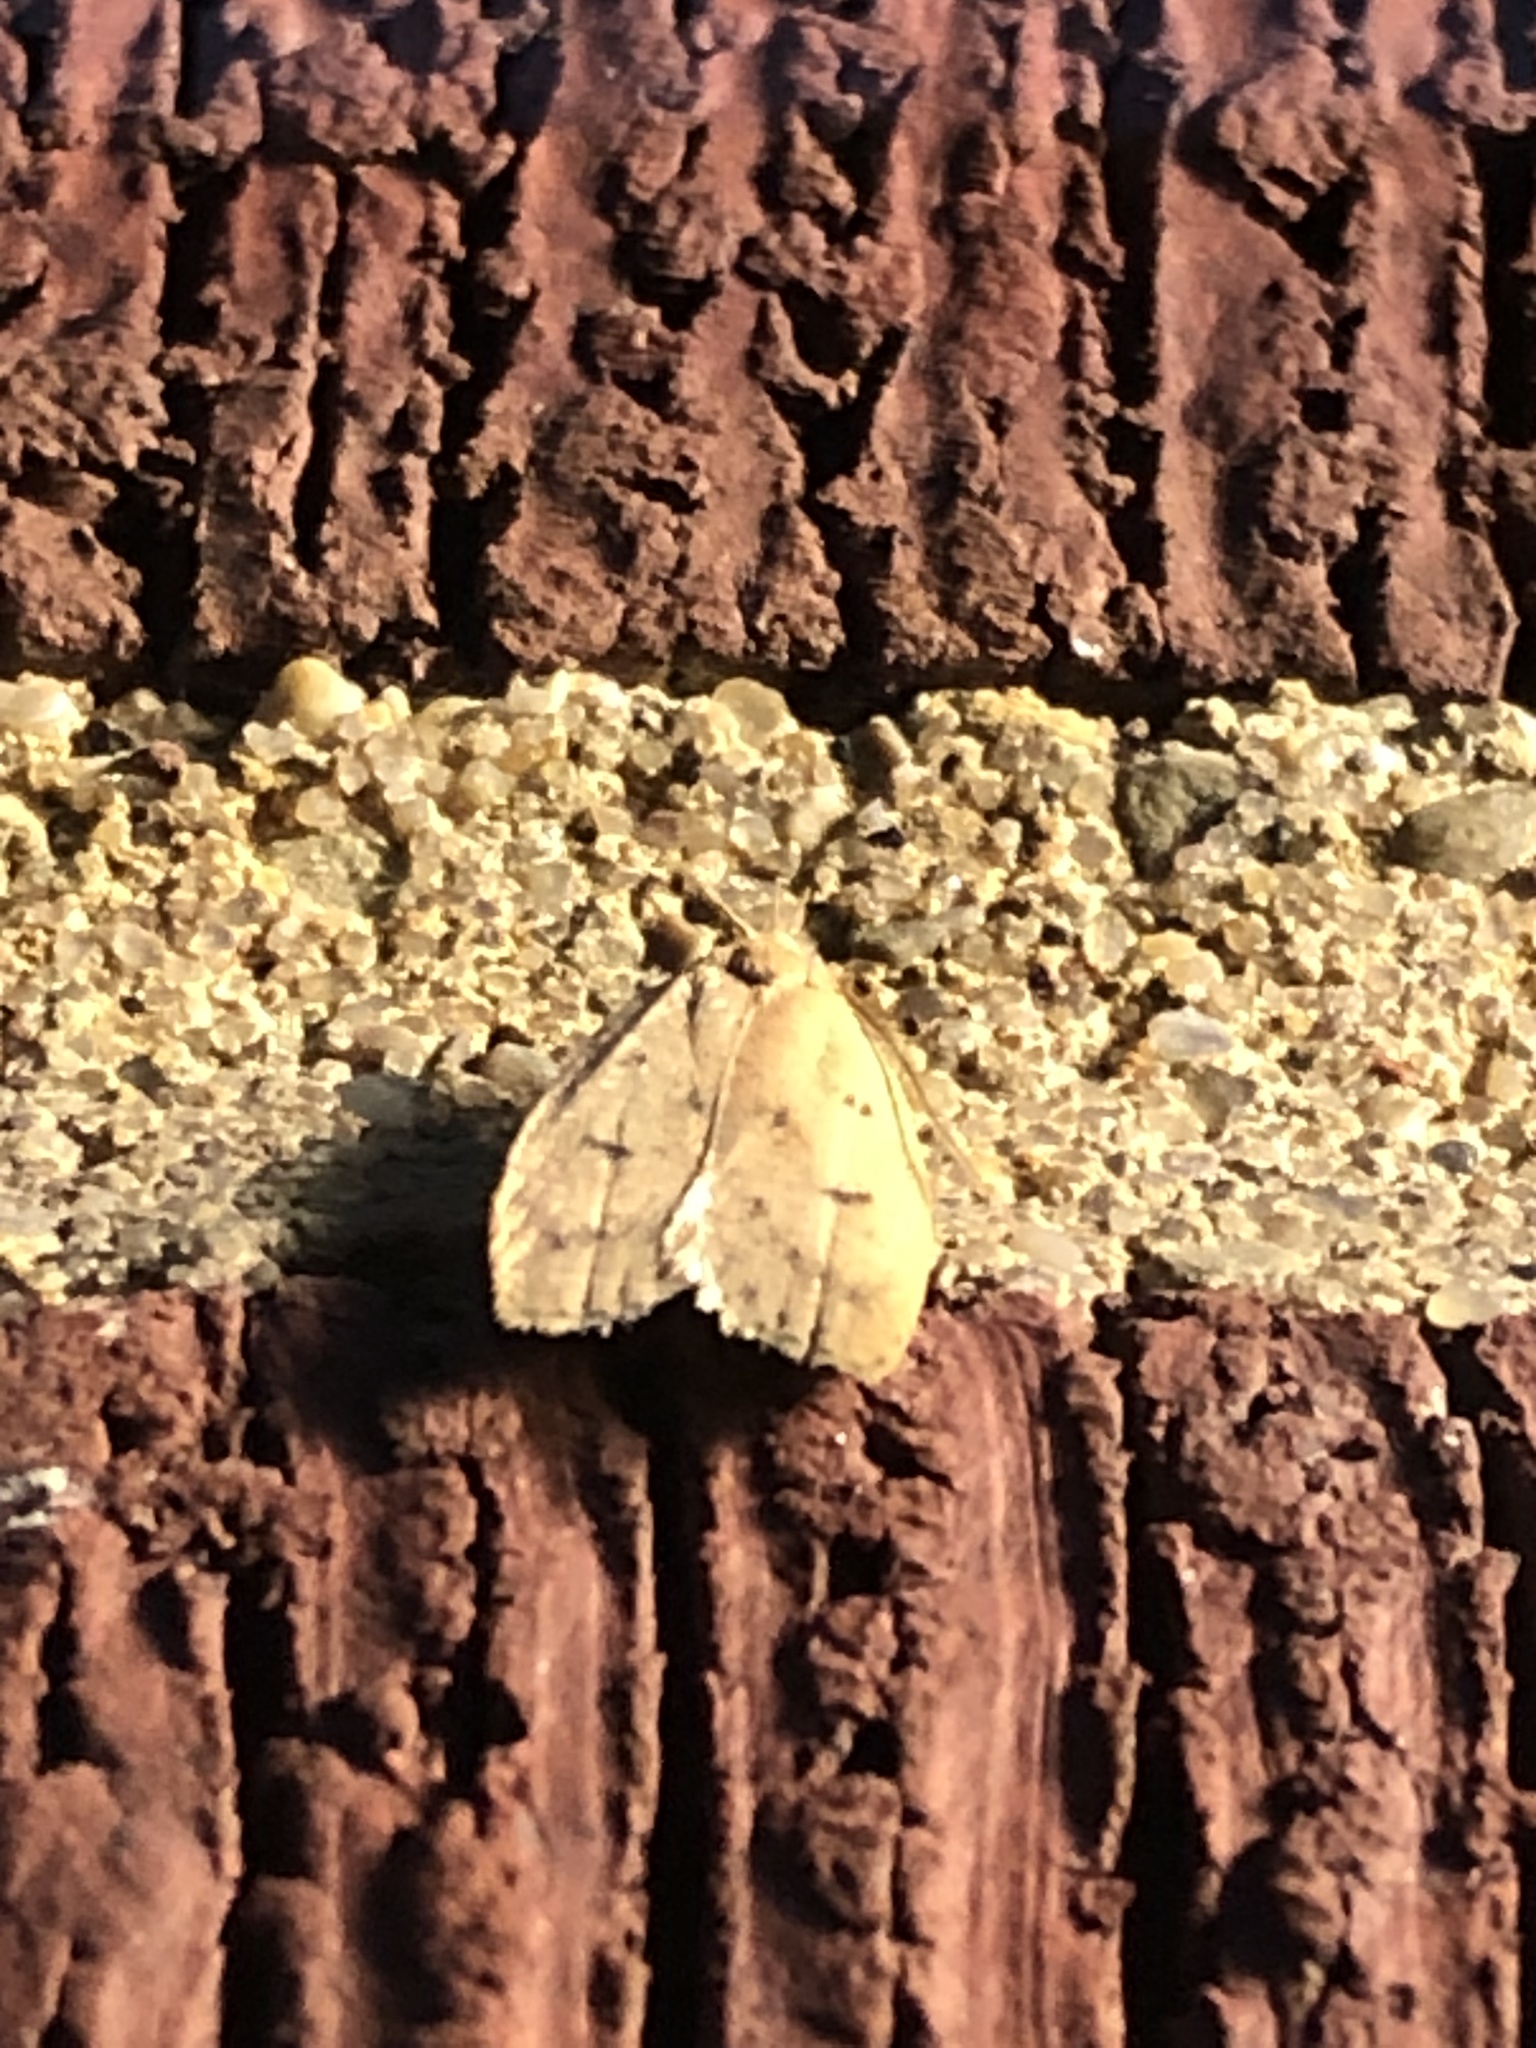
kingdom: Animalia
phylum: Arthropoda
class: Insecta
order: Lepidoptera
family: Peleopodidae
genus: Machimia
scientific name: Machimia tentoriferella
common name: Gold-striped leaftier moth
